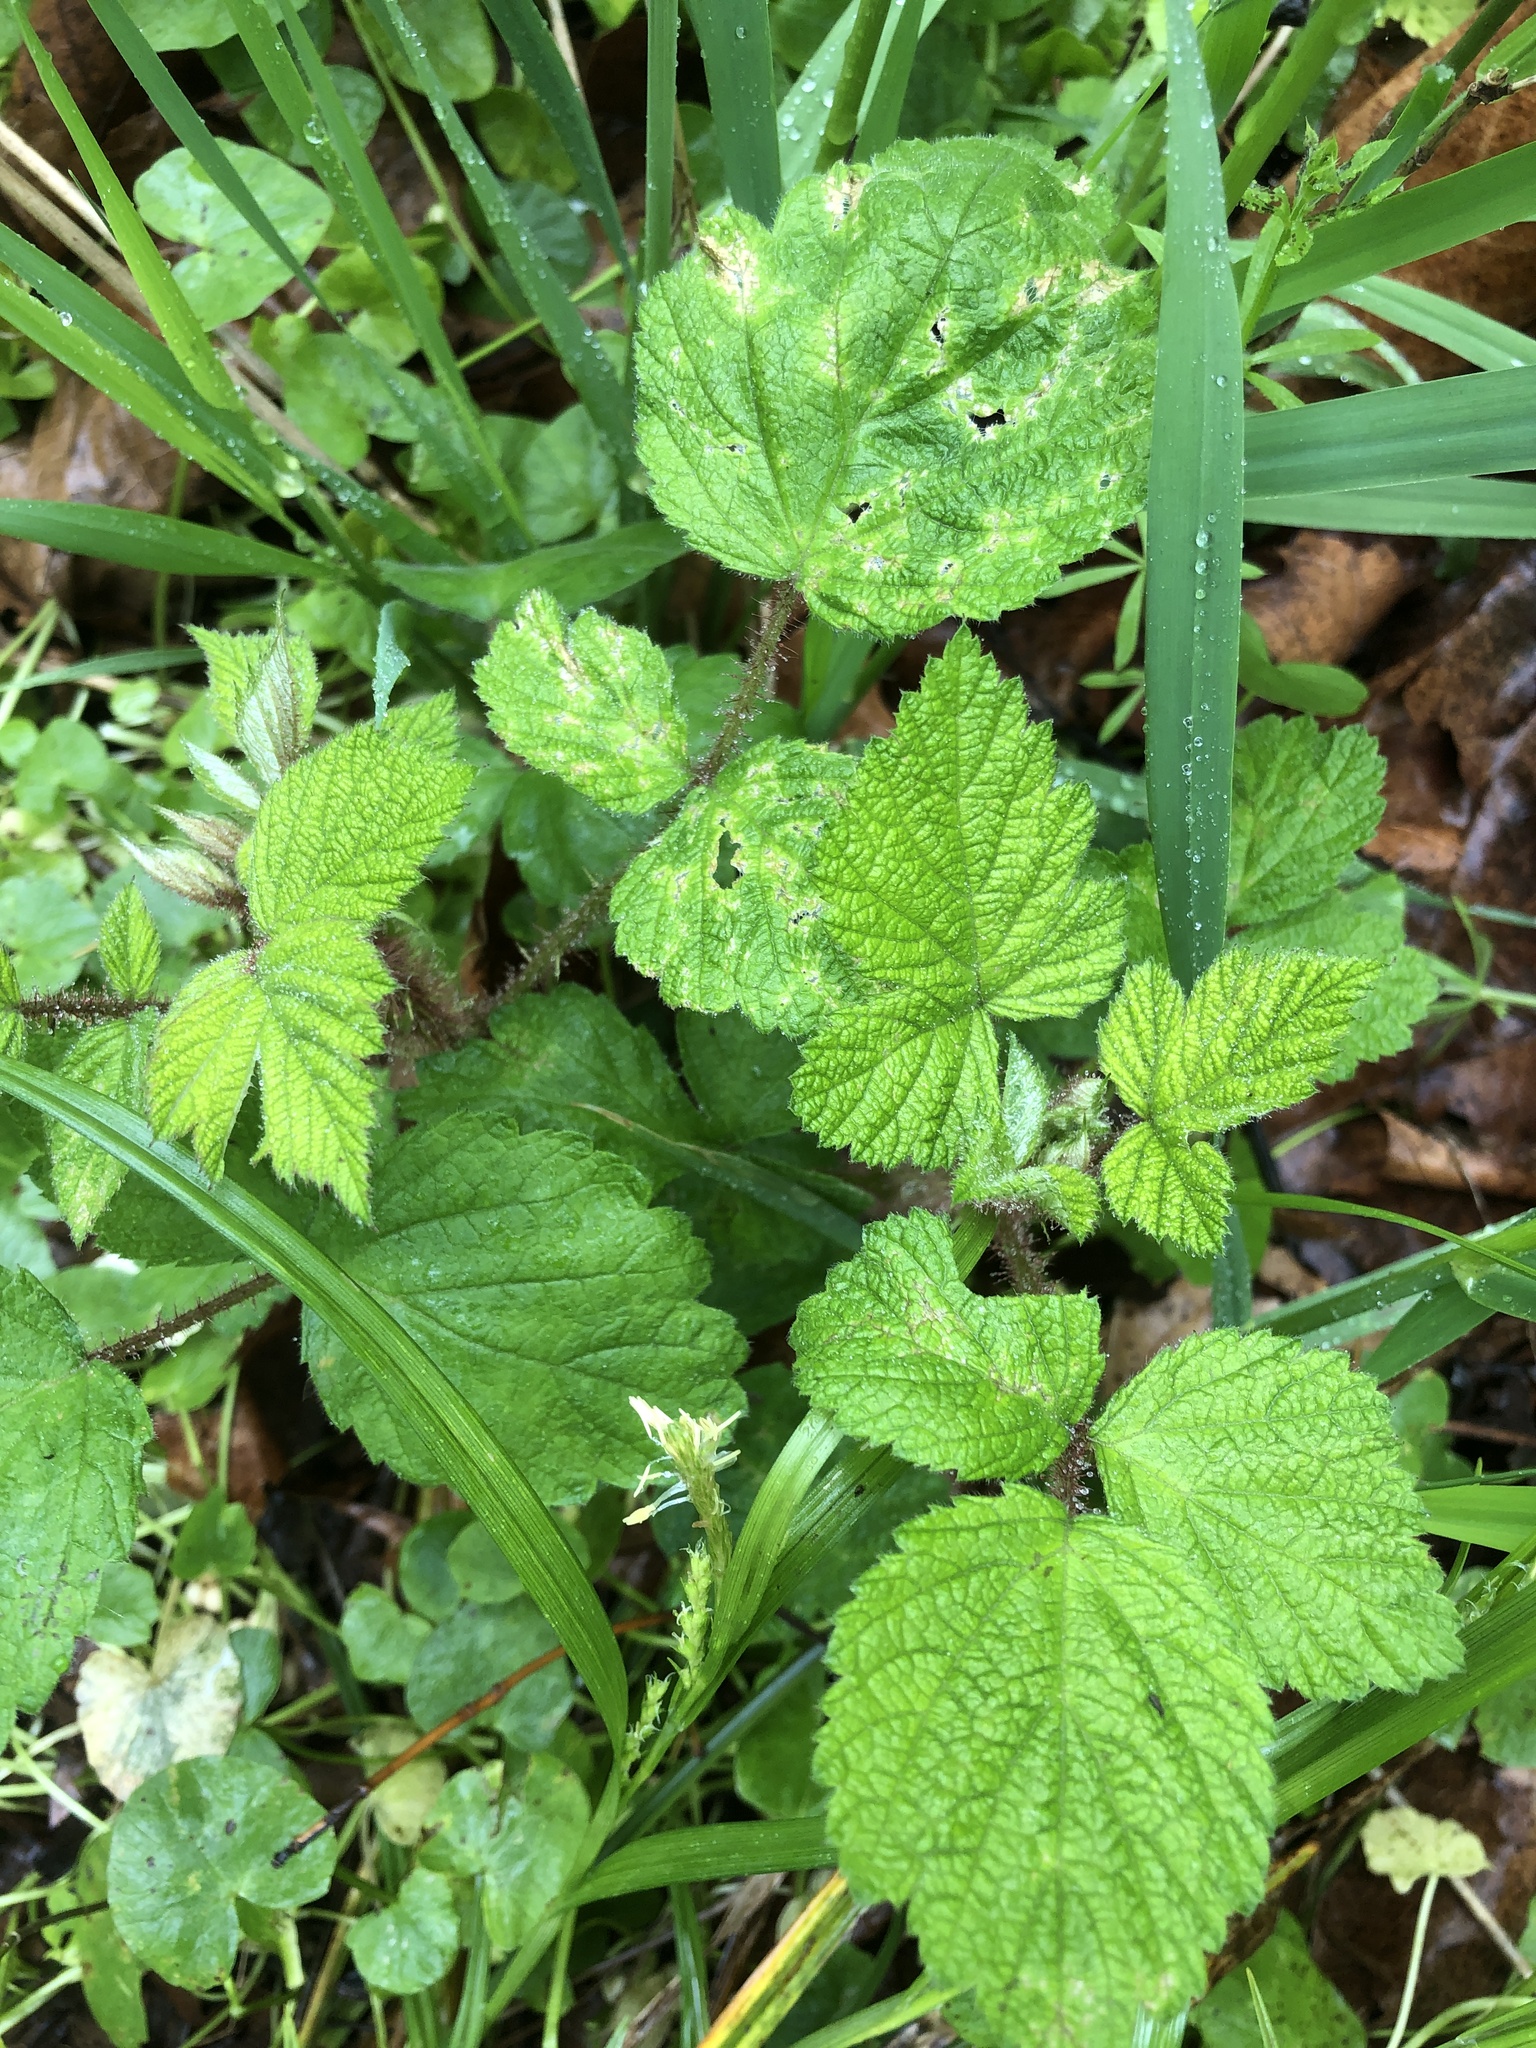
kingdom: Plantae
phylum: Tracheophyta
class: Magnoliopsida
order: Rosales
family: Rosaceae
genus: Rubus
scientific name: Rubus phoenicolasius
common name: Japanese wineberry
